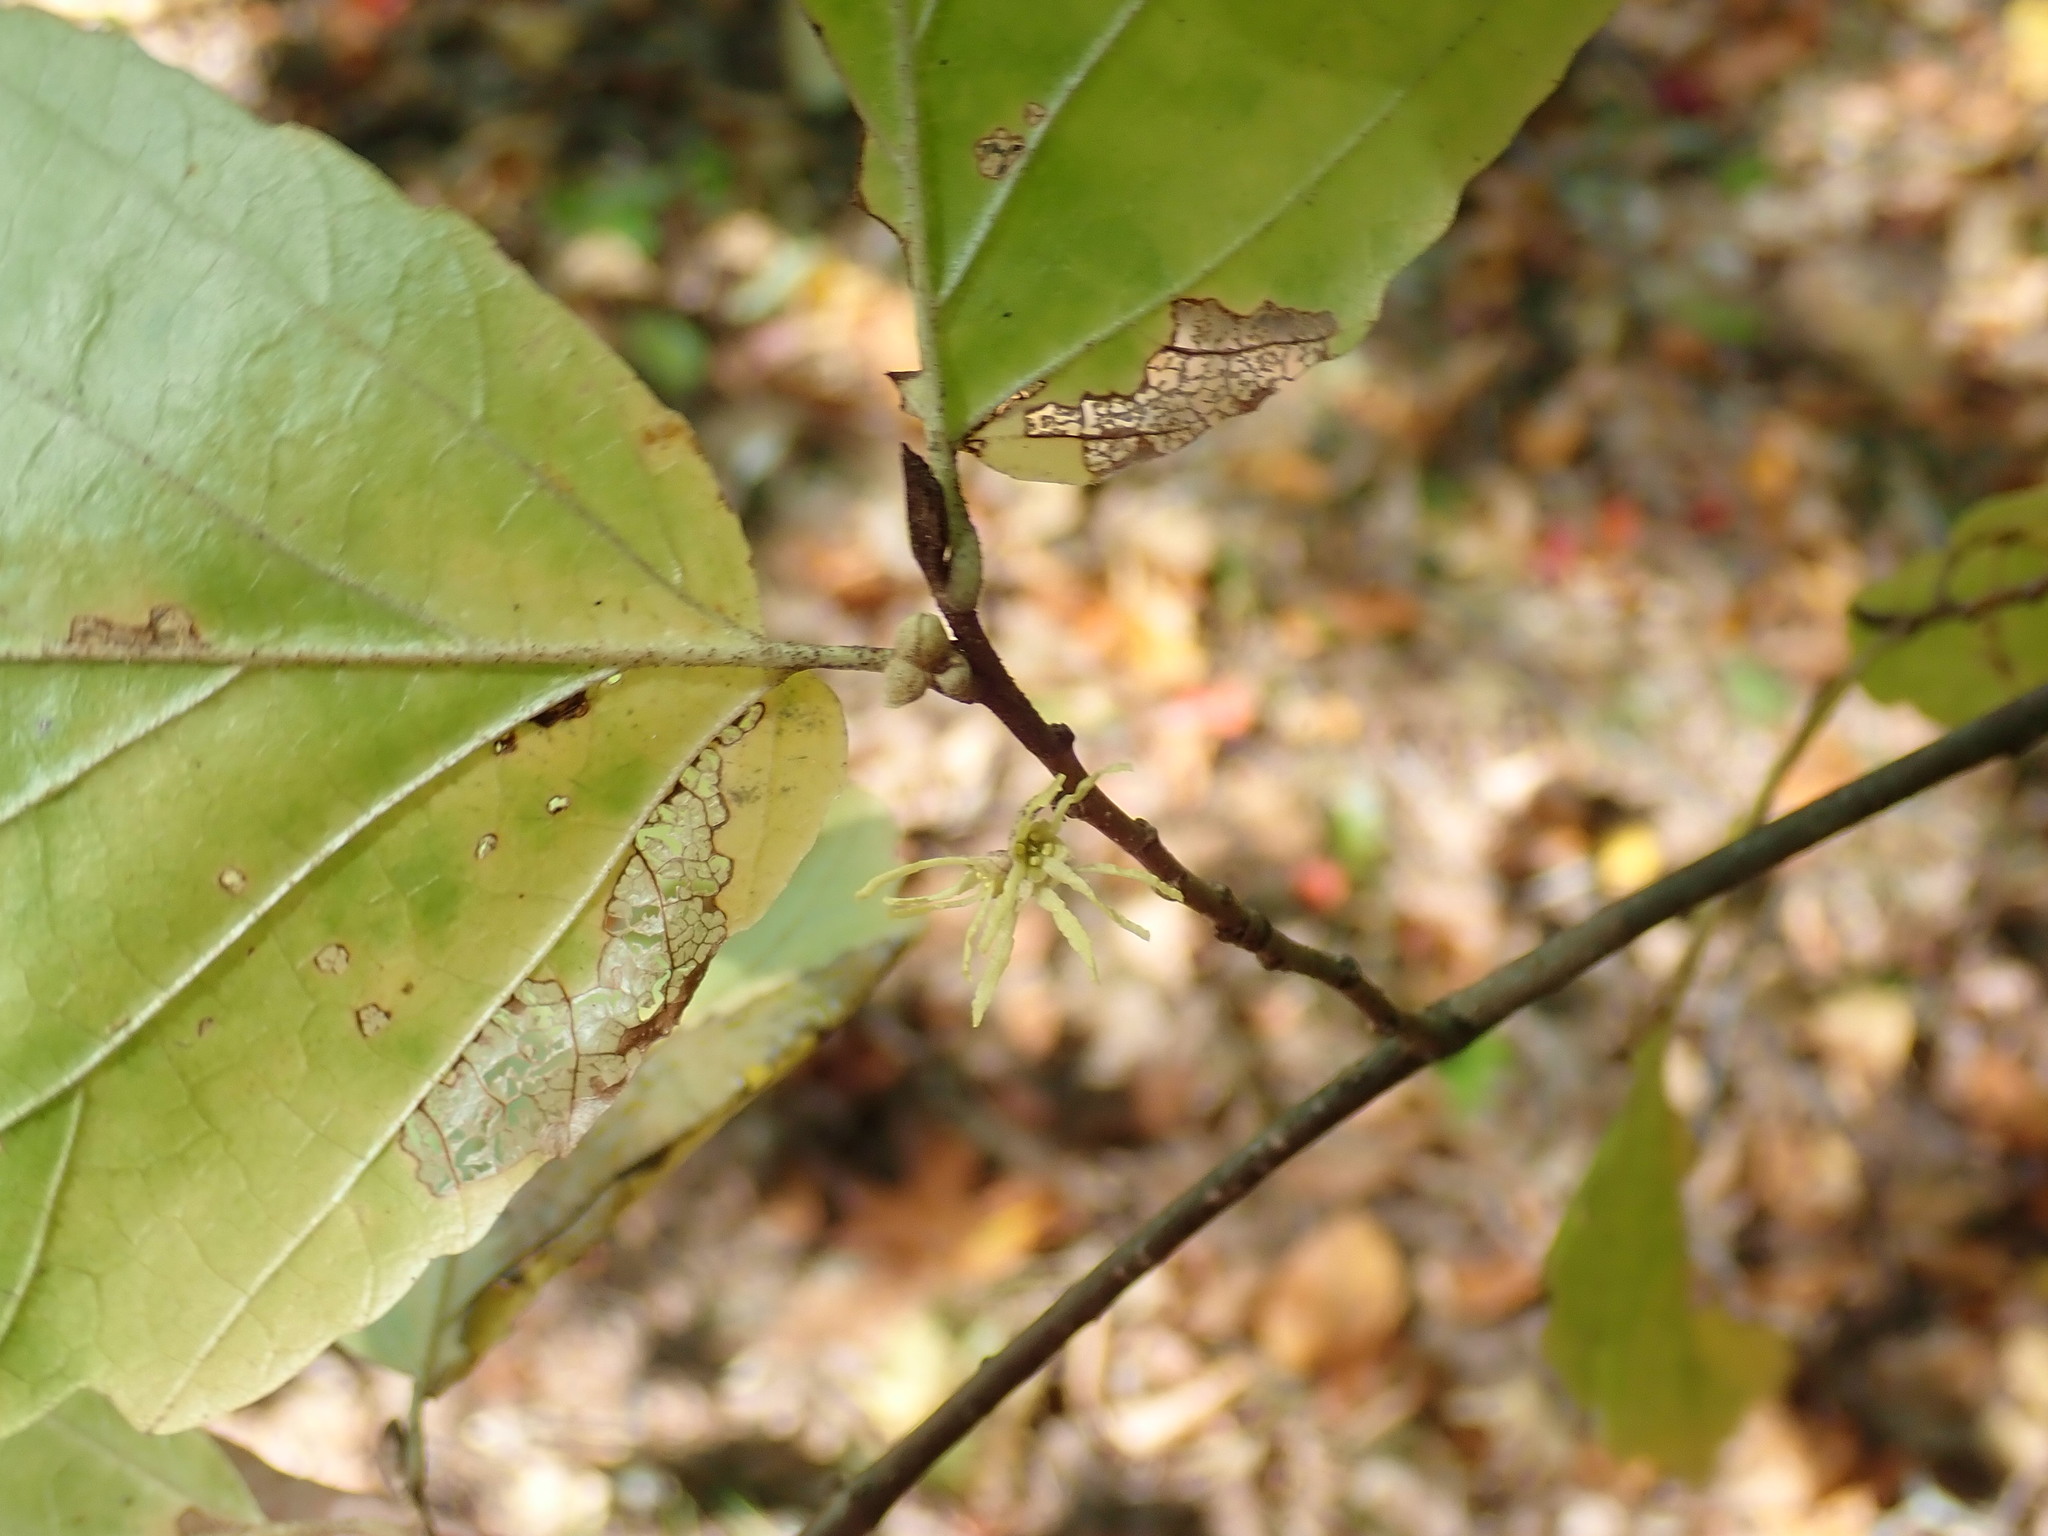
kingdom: Plantae
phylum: Tracheophyta
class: Magnoliopsida
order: Saxifragales
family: Hamamelidaceae
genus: Hamamelis
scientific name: Hamamelis virginiana
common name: Witch-hazel
